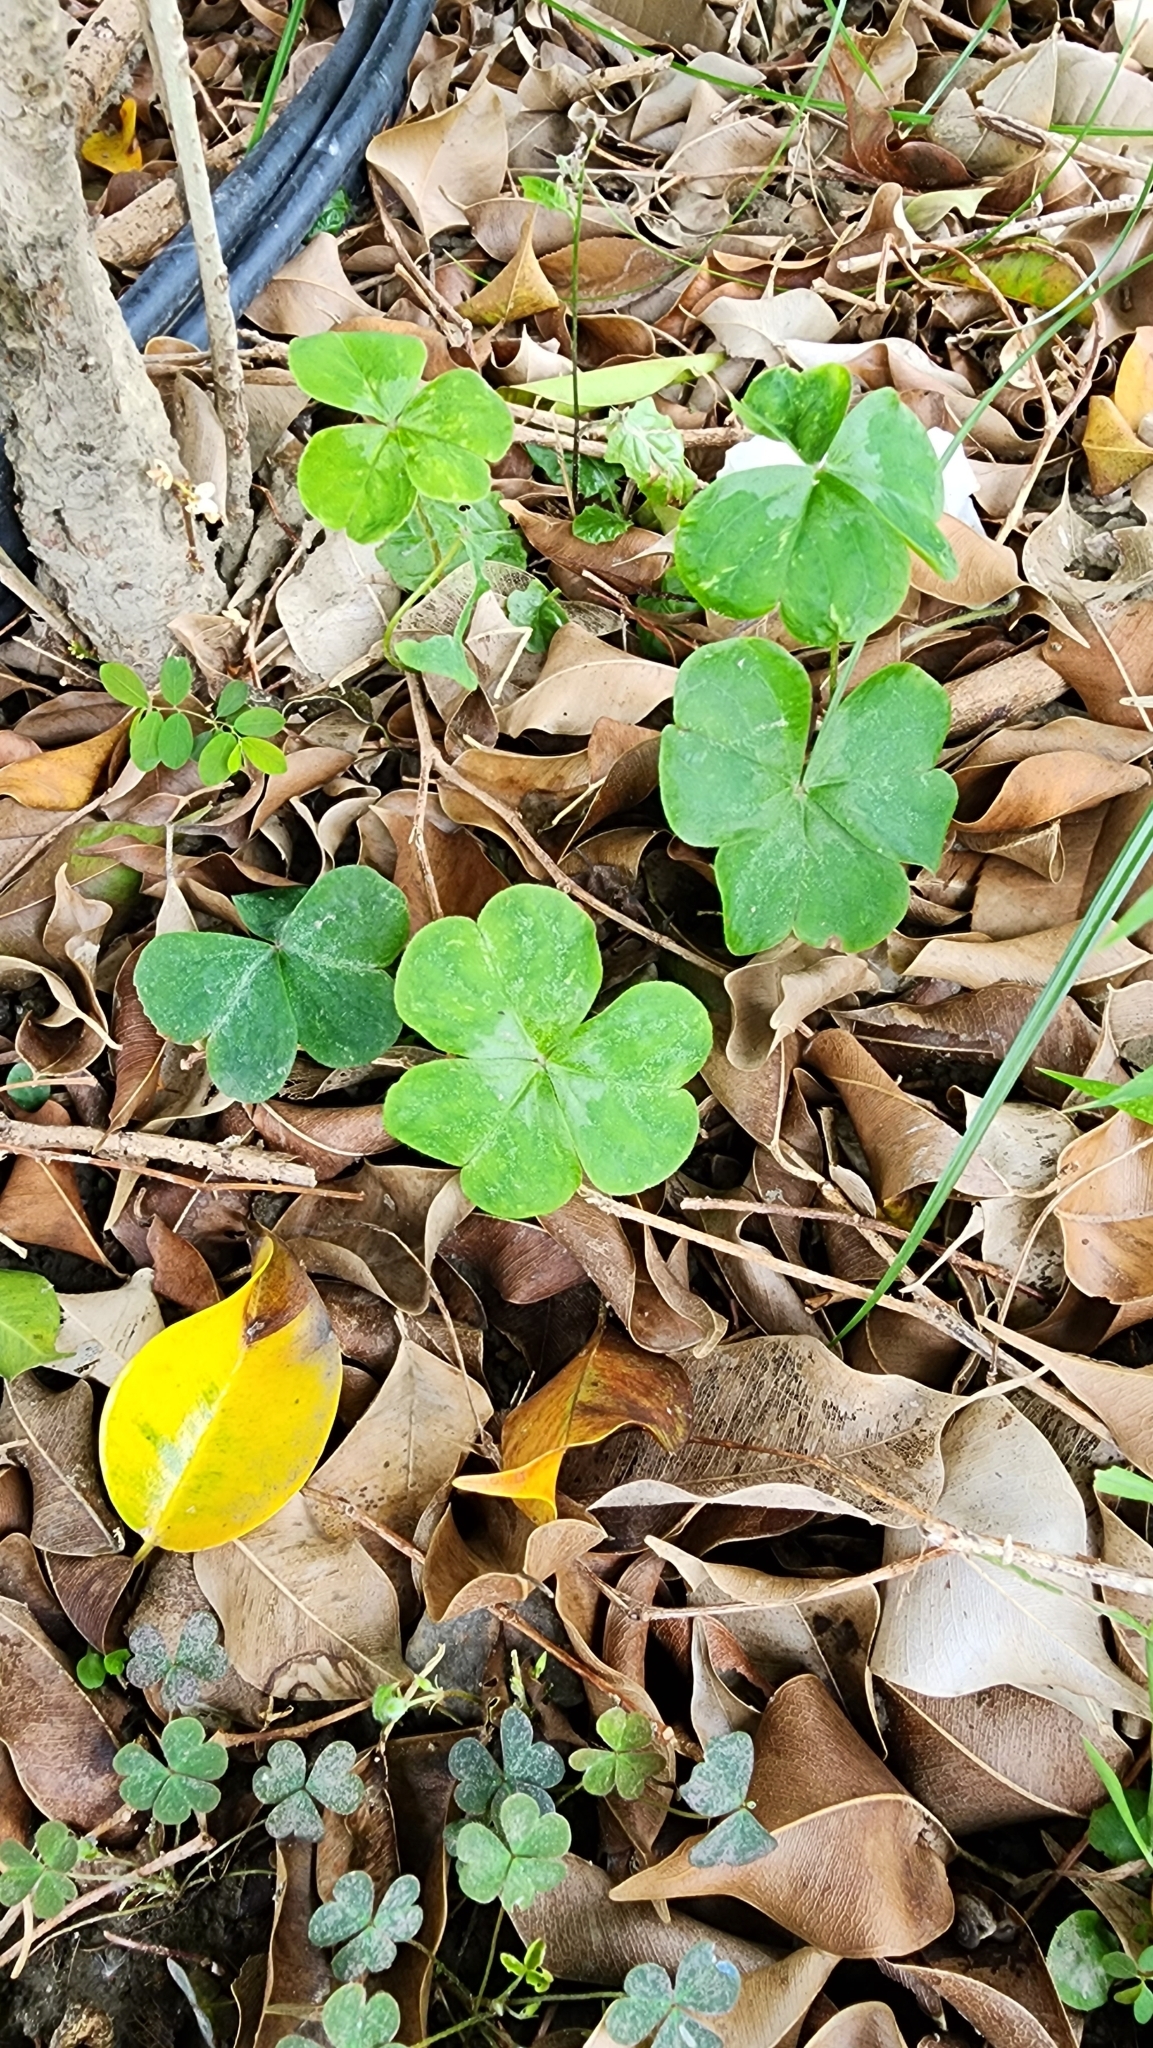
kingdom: Plantae
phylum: Tracheophyta
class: Magnoliopsida
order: Oxalidales
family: Oxalidaceae
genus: Oxalis
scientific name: Oxalis debilis
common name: Large-flowered pink-sorrel
